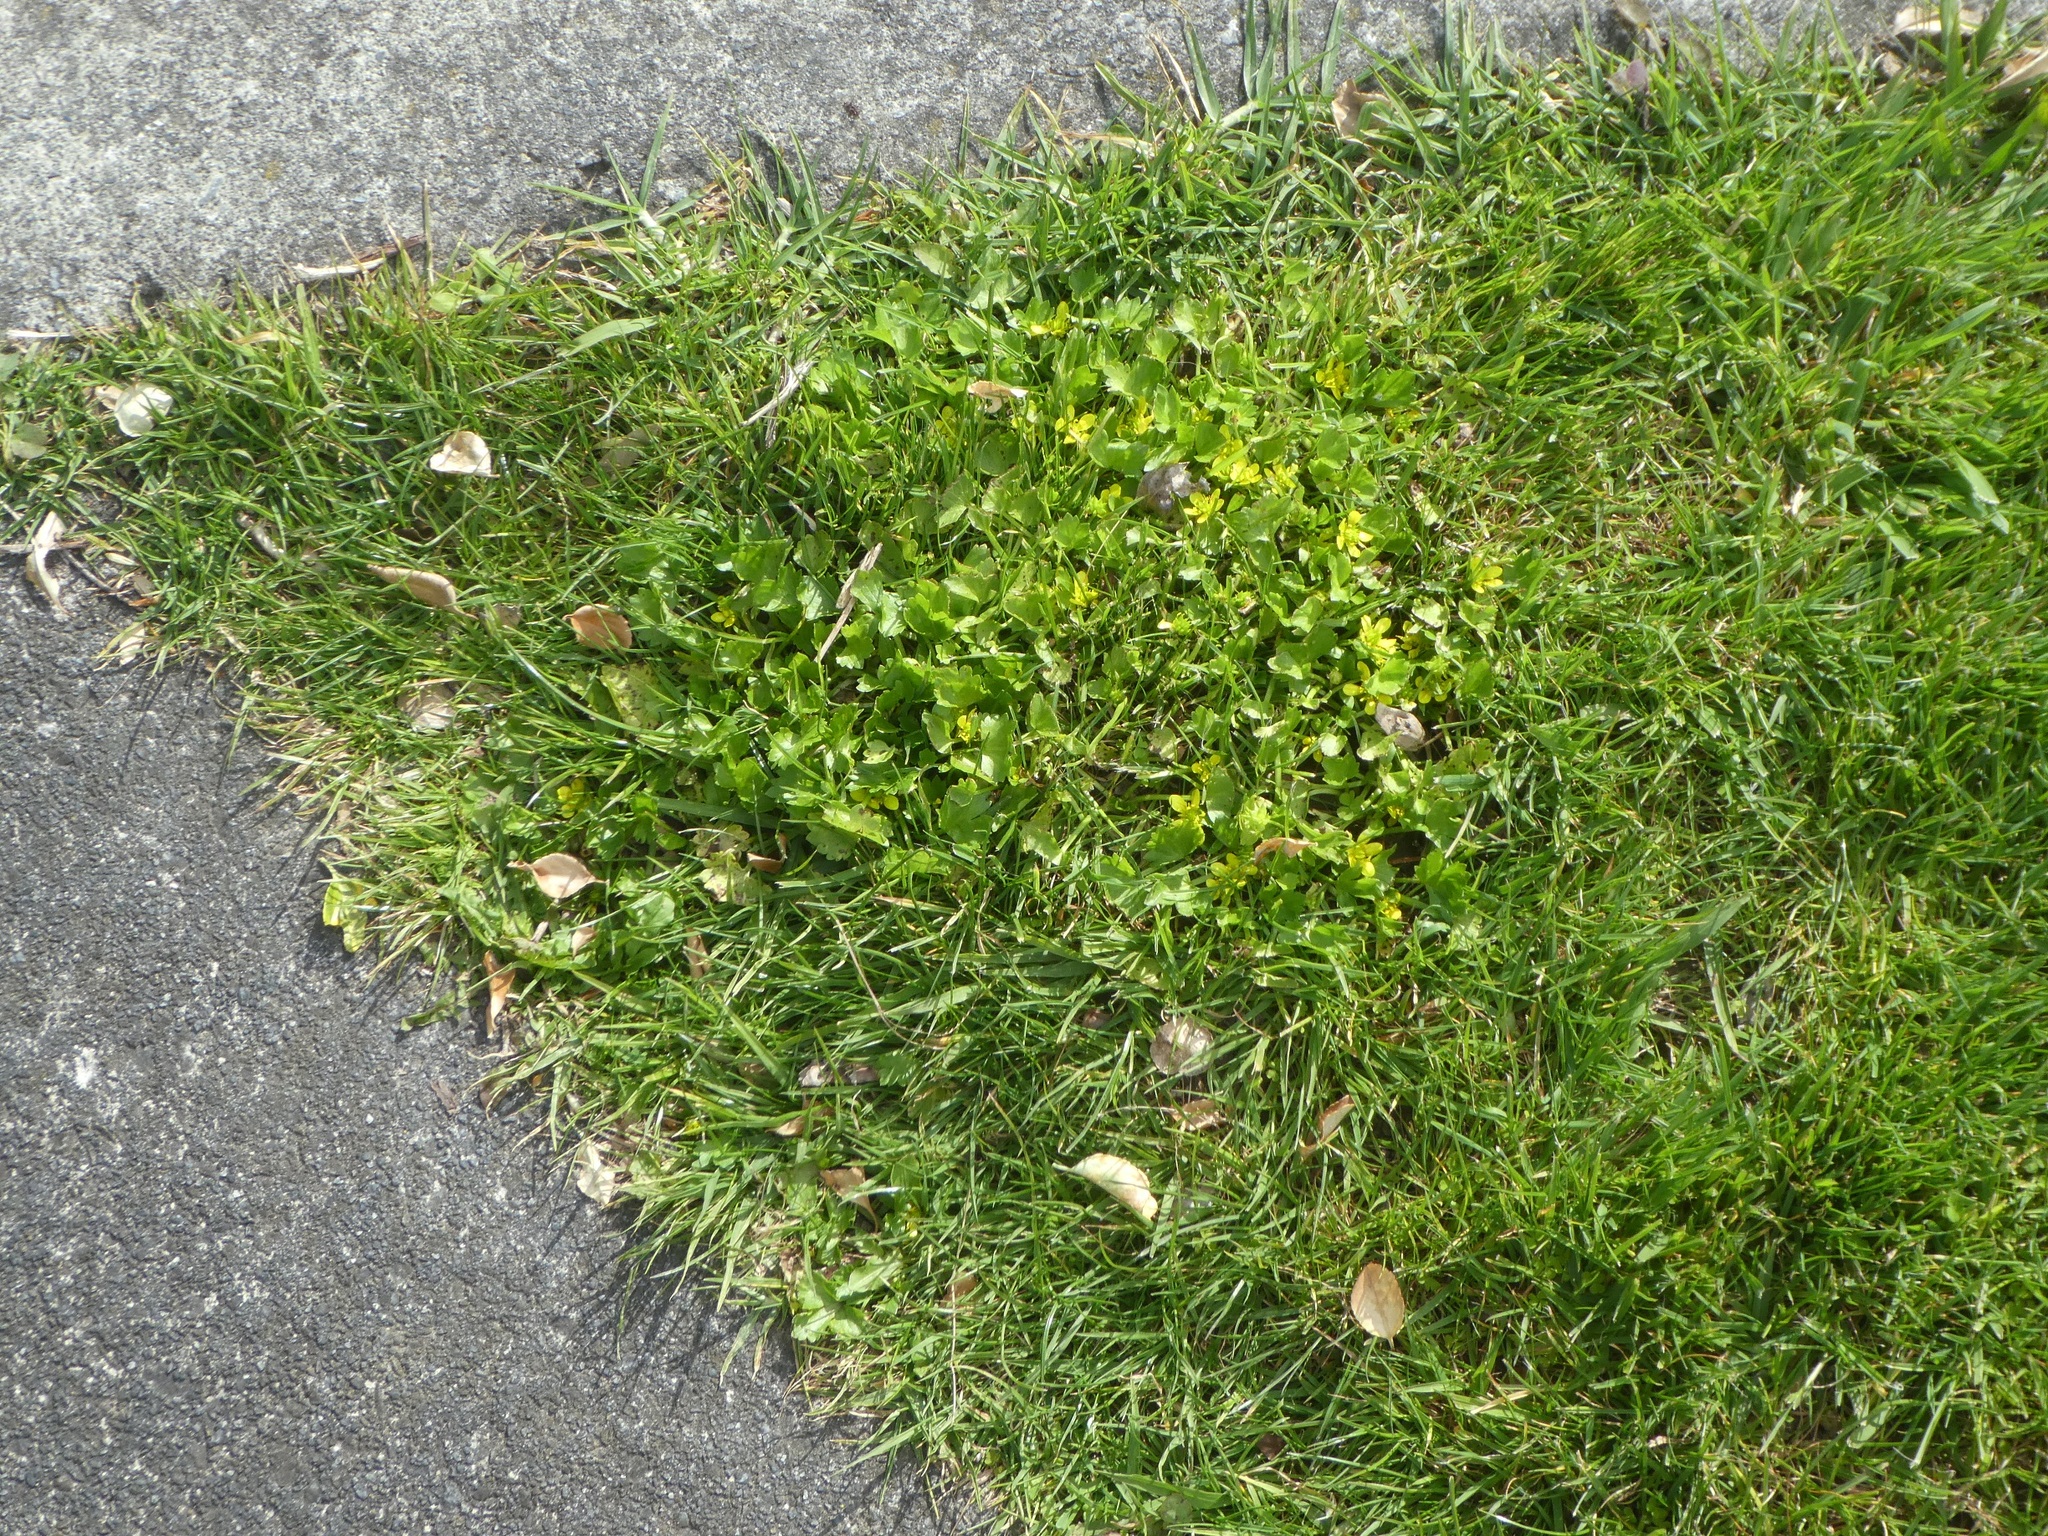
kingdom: Plantae
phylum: Tracheophyta
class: Magnoliopsida
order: Ranunculales
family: Ranunculaceae
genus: Ranunculus
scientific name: Ranunculus sceleratus
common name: Celery-leaved buttercup
